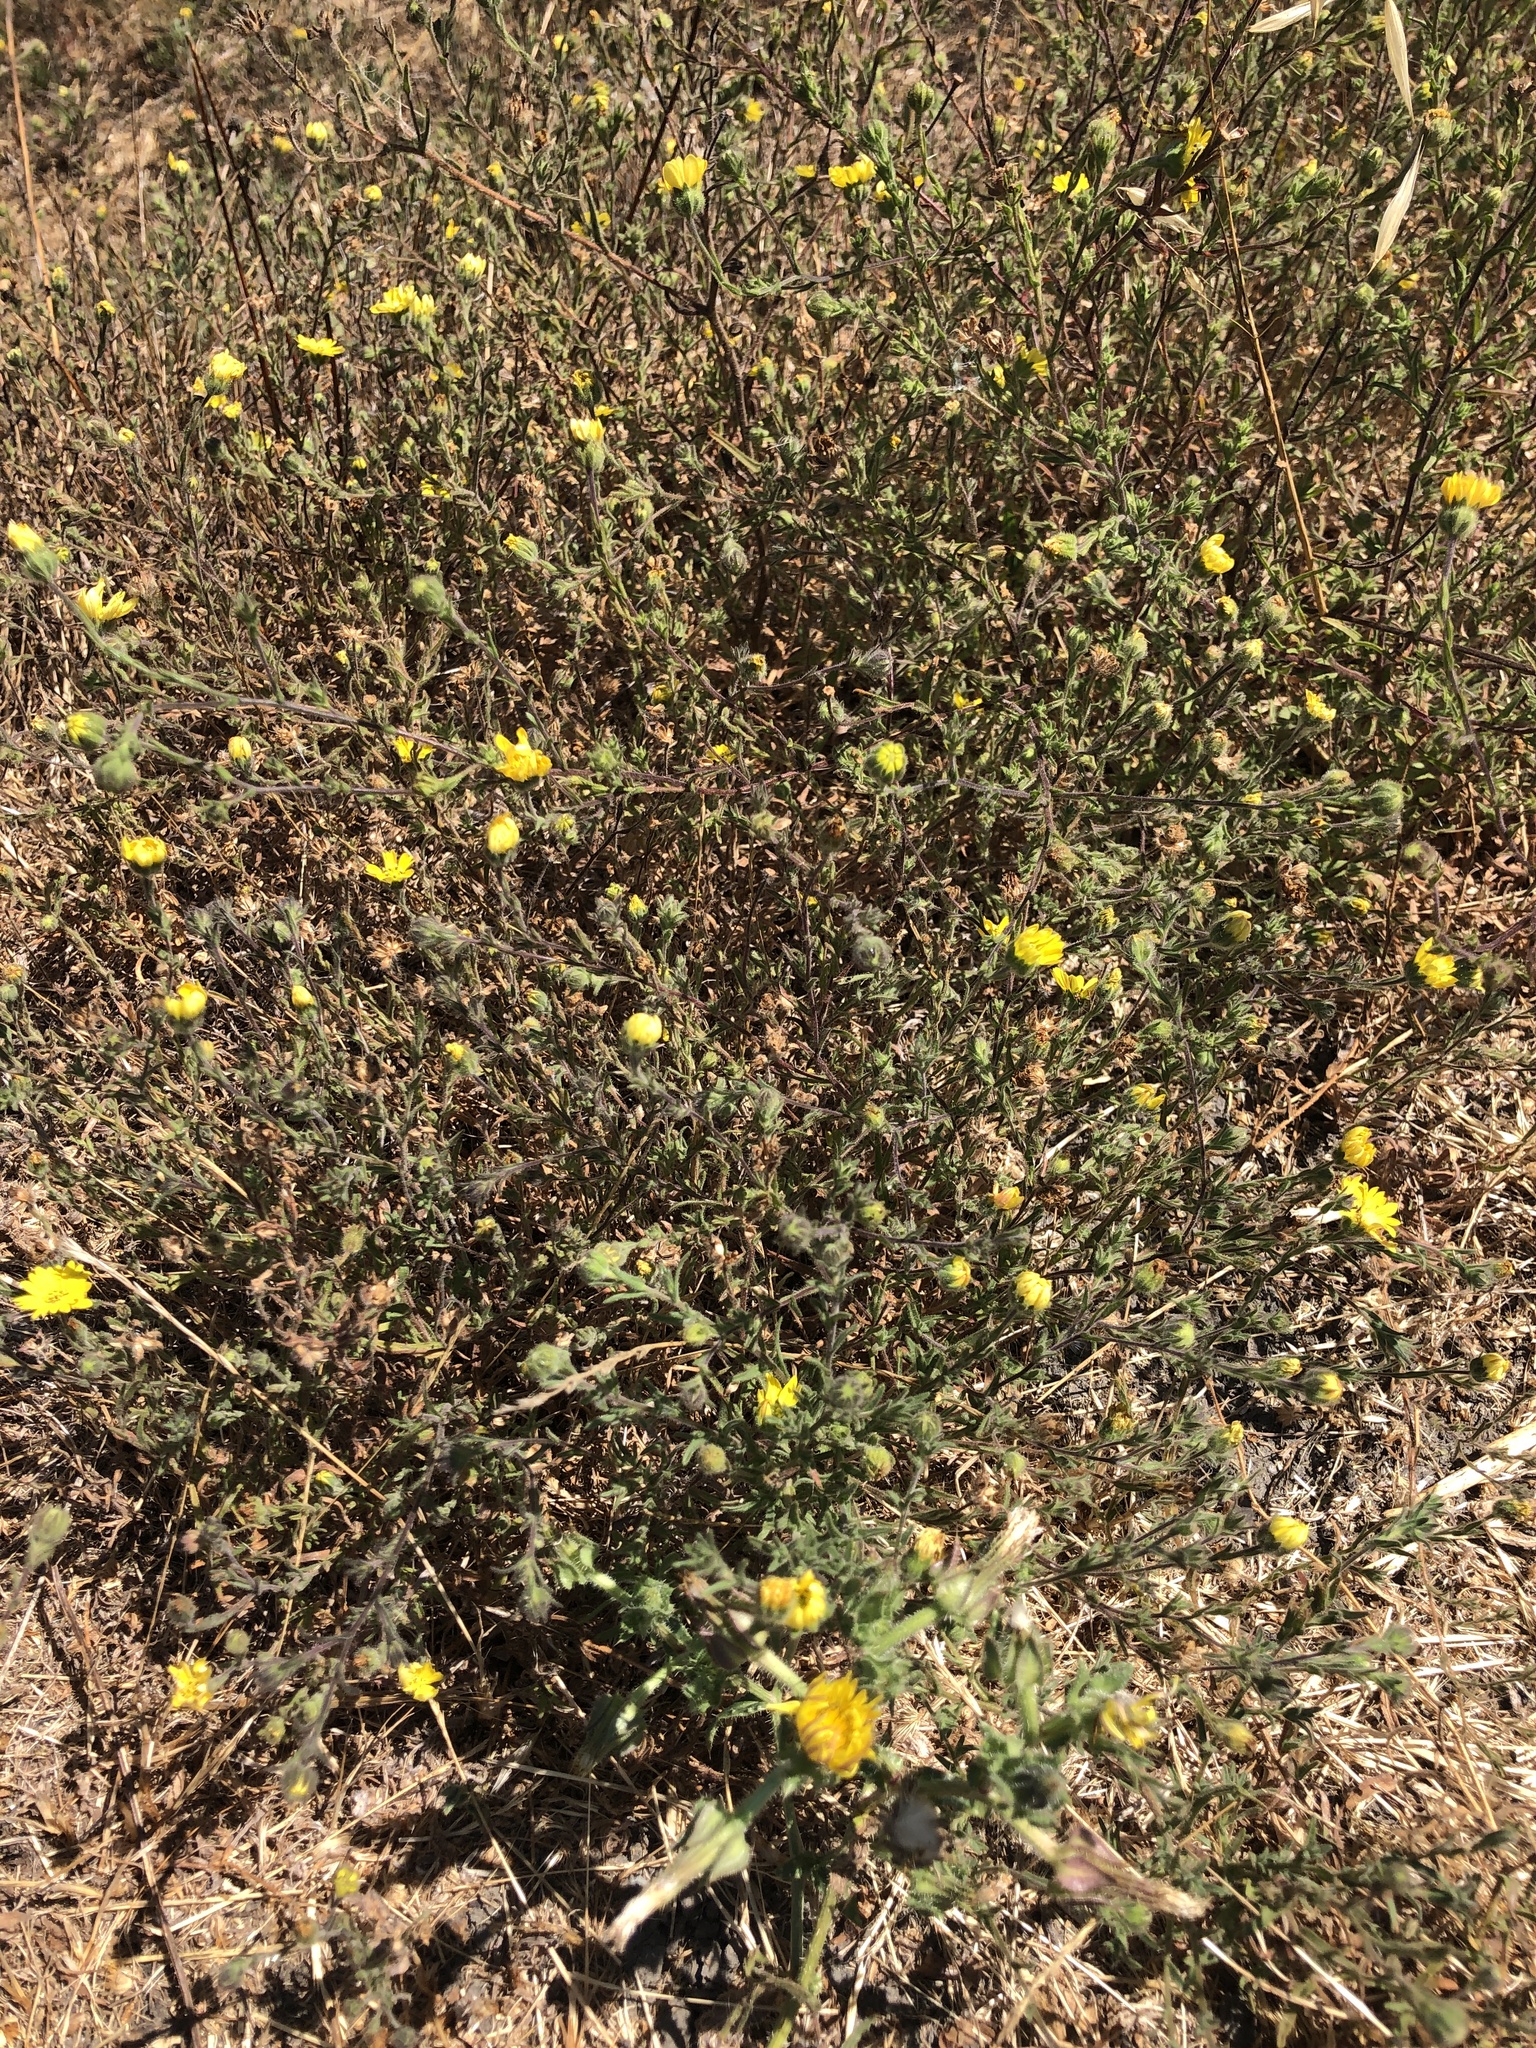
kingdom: Plantae
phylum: Tracheophyta
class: Magnoliopsida
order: Asterales
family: Asteraceae
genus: Hemizonia
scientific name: Hemizonia congesta
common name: Hayfield tarweed
